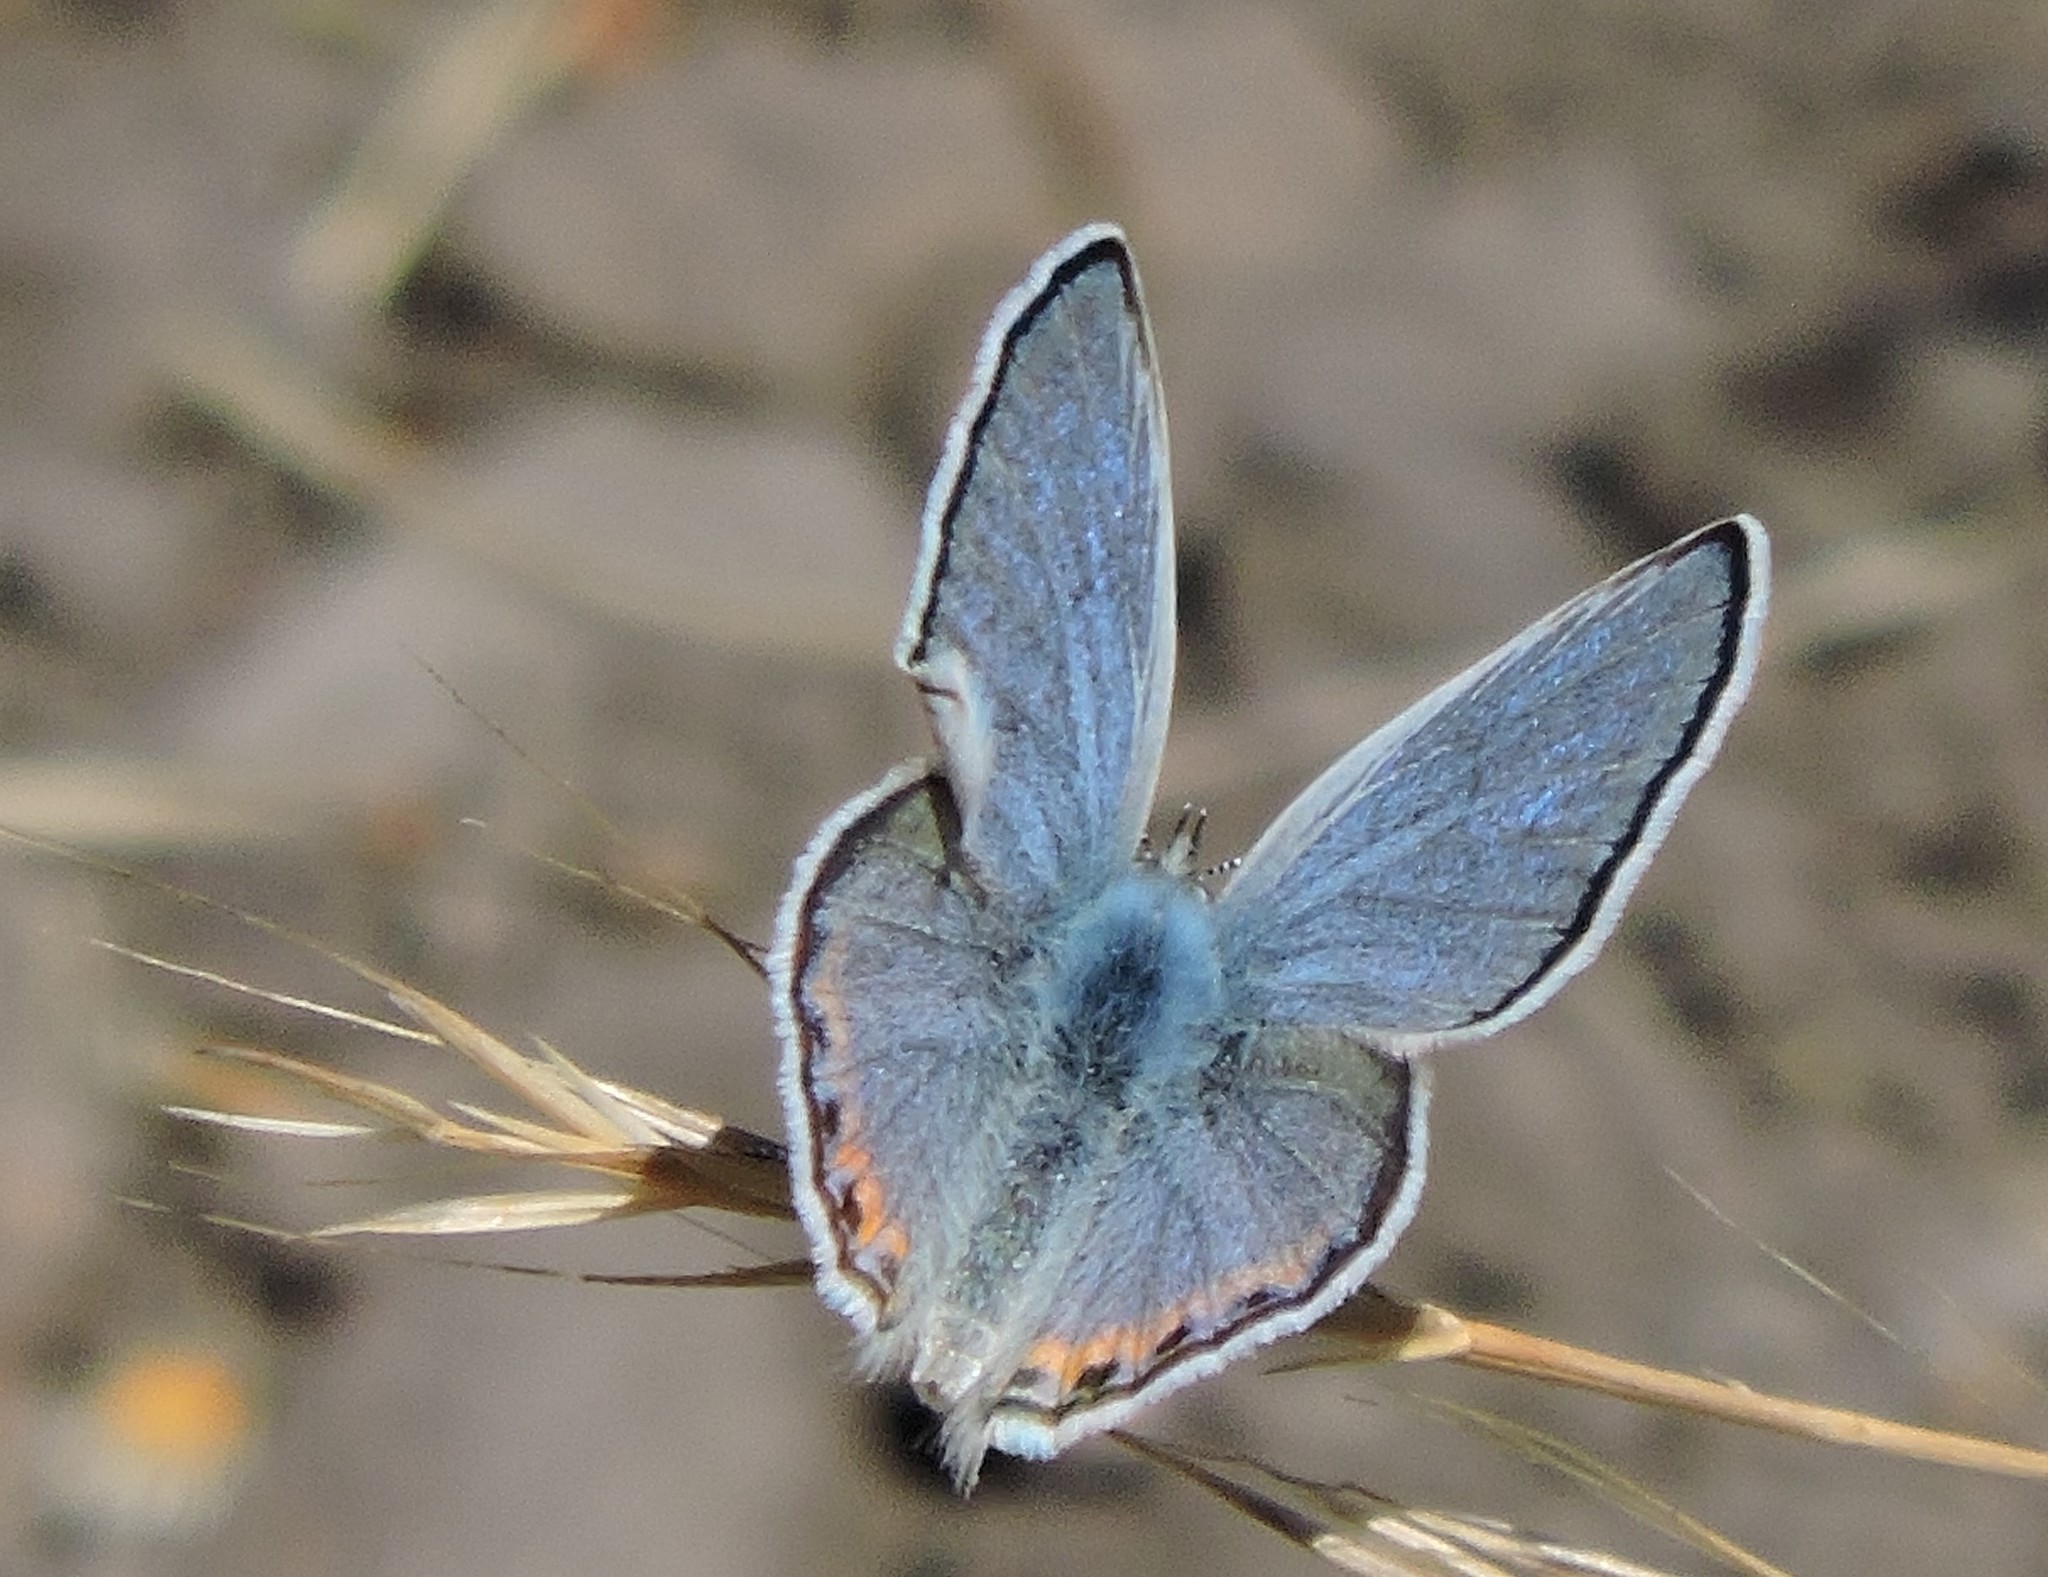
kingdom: Animalia
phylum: Arthropoda
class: Insecta
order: Lepidoptera
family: Lycaenidae
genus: Icaricia
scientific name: Icaricia acmon
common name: Acmon blue
